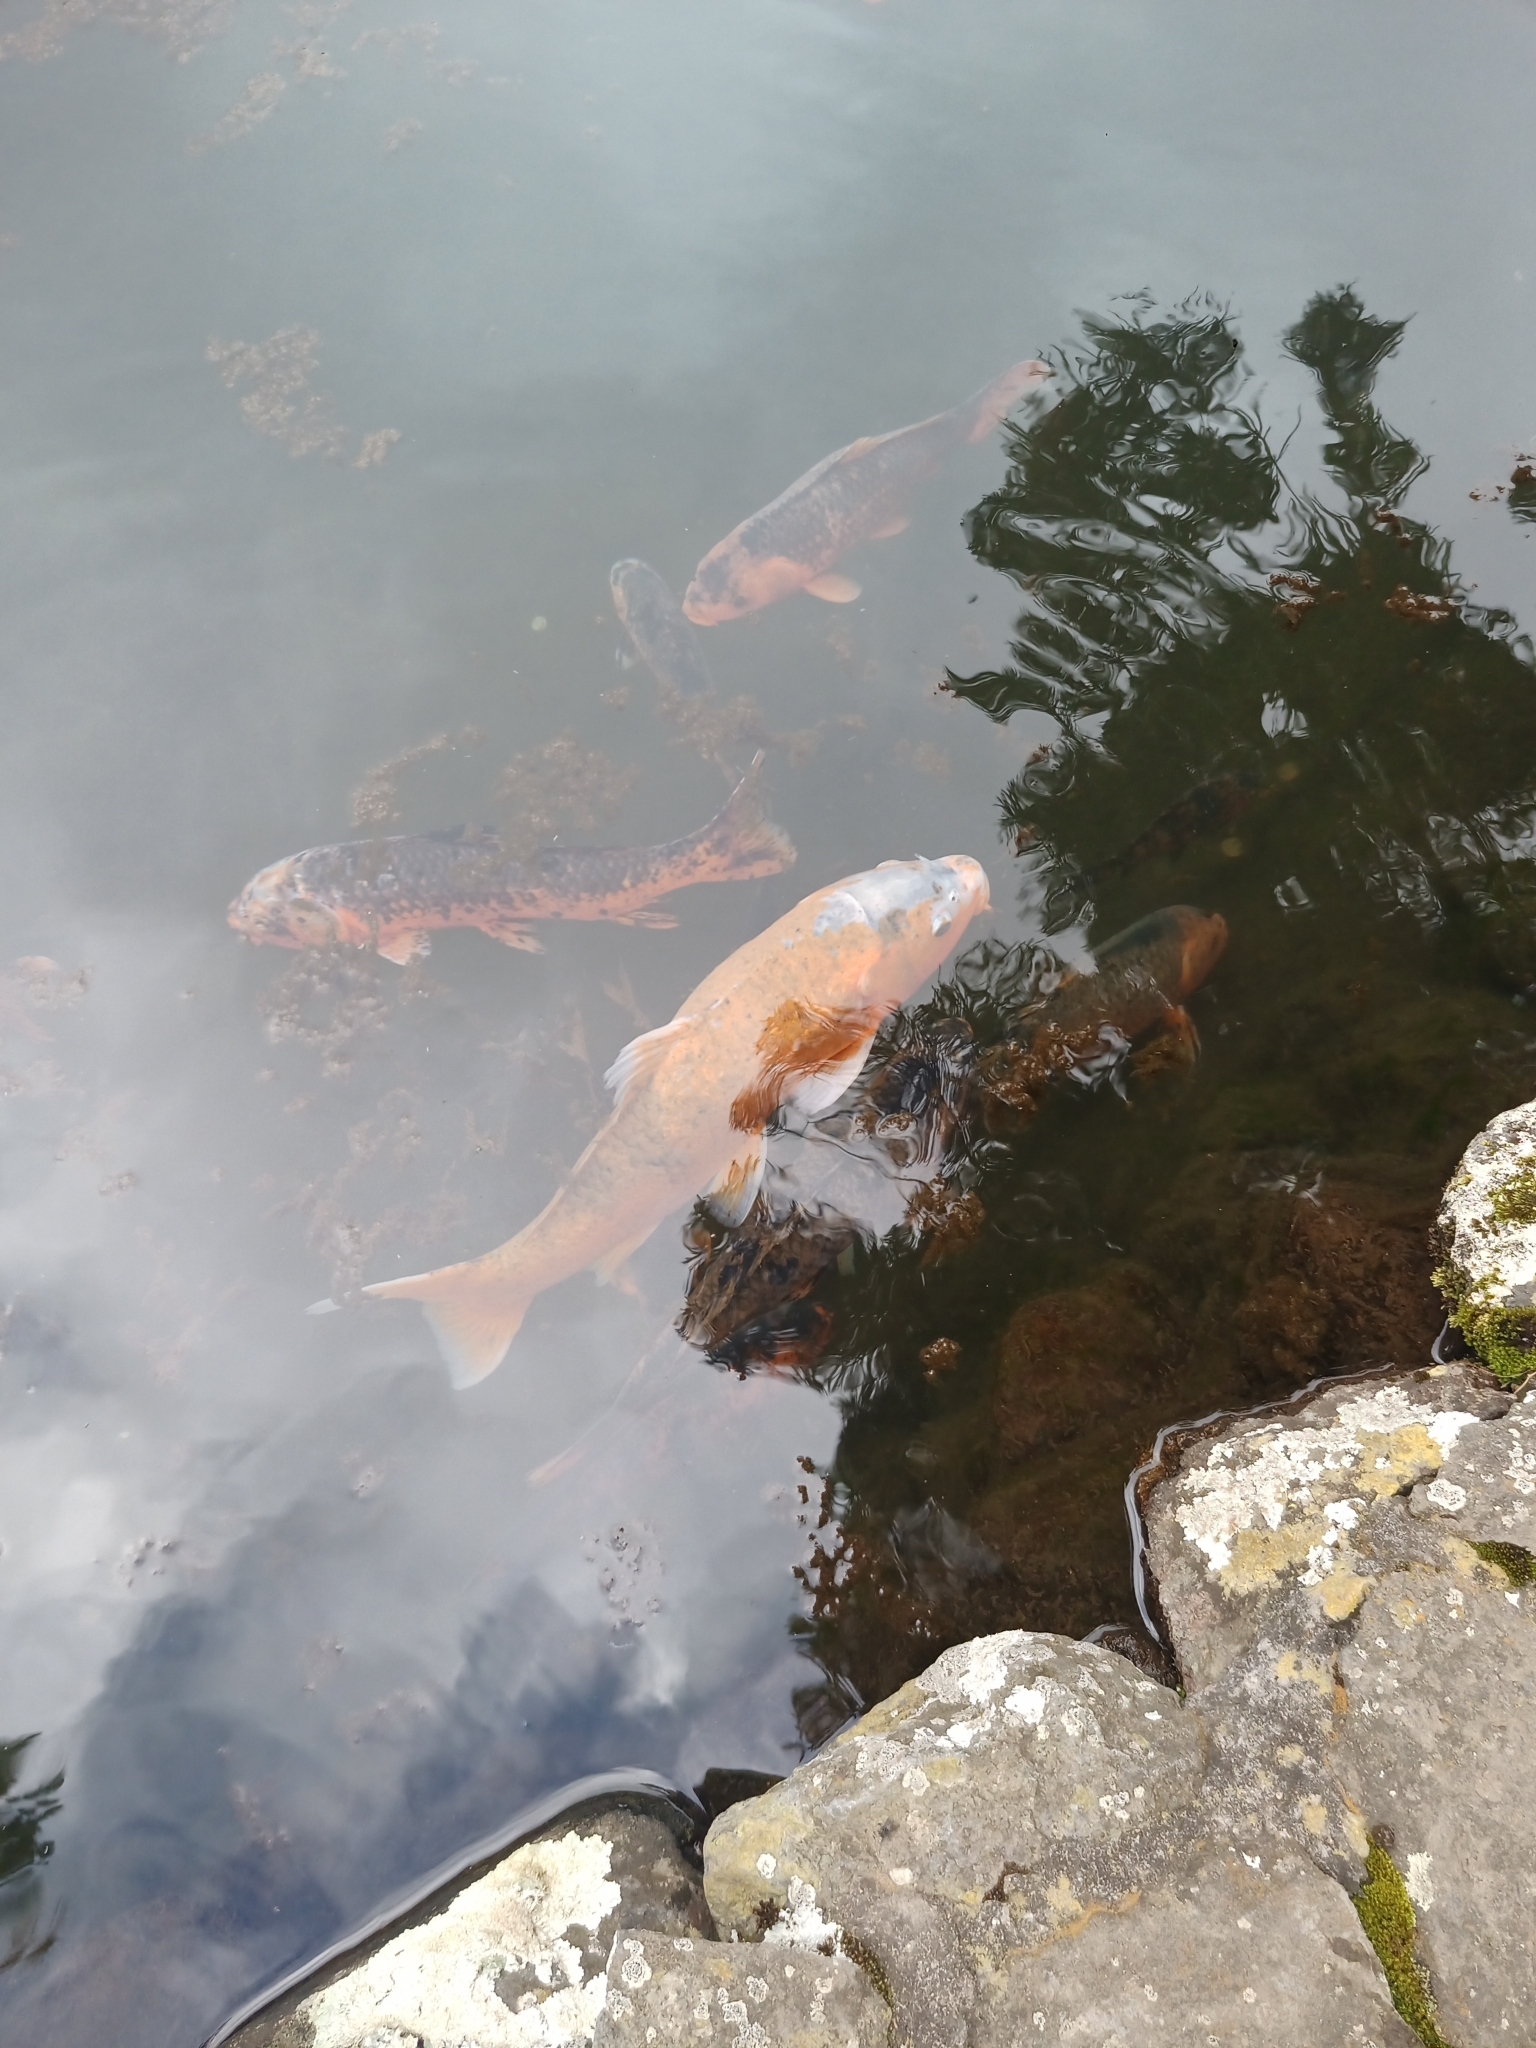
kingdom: Animalia
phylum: Chordata
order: Cypriniformes
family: Cyprinidae
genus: Cyprinus
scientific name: Cyprinus rubrofuscus
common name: Koi
